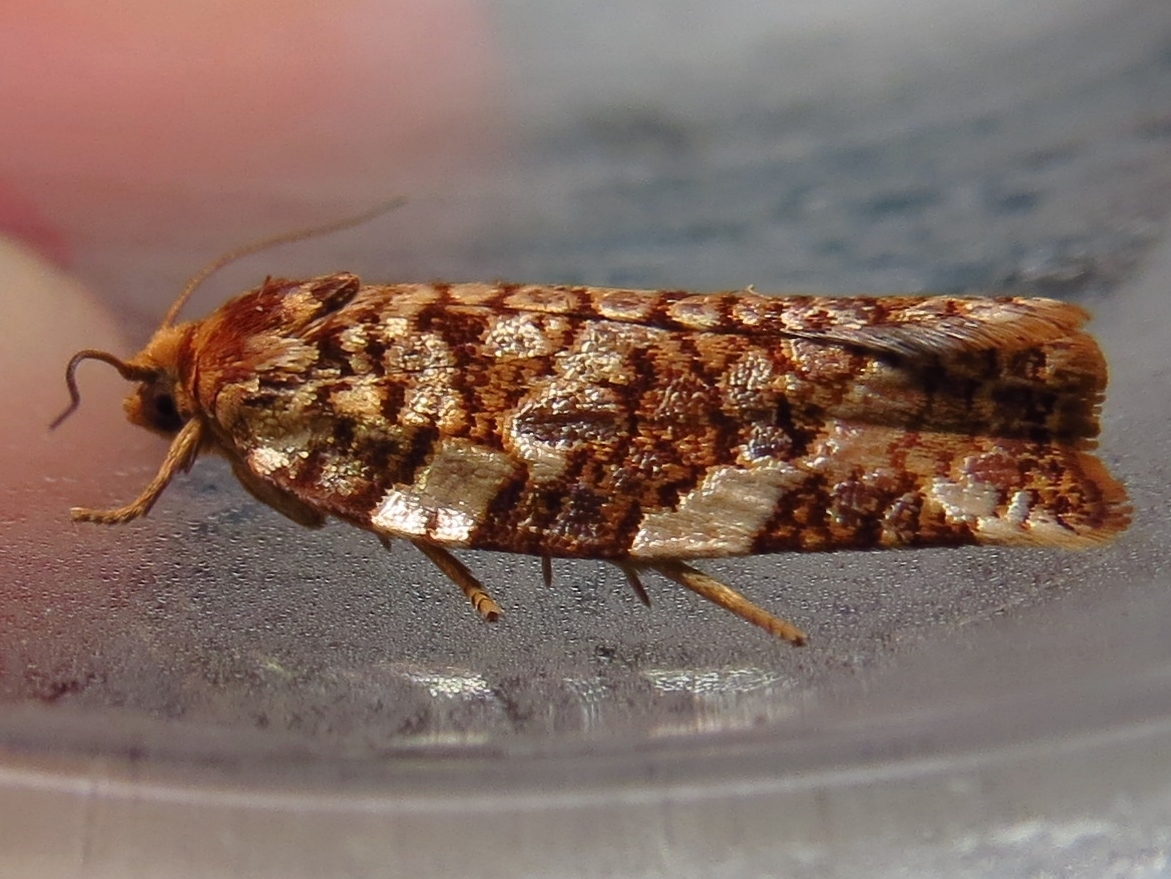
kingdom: Animalia
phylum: Arthropoda
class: Insecta
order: Lepidoptera
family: Tortricidae
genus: Archips
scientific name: Archips argyrospila
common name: Fruit-tree leafroller moth
